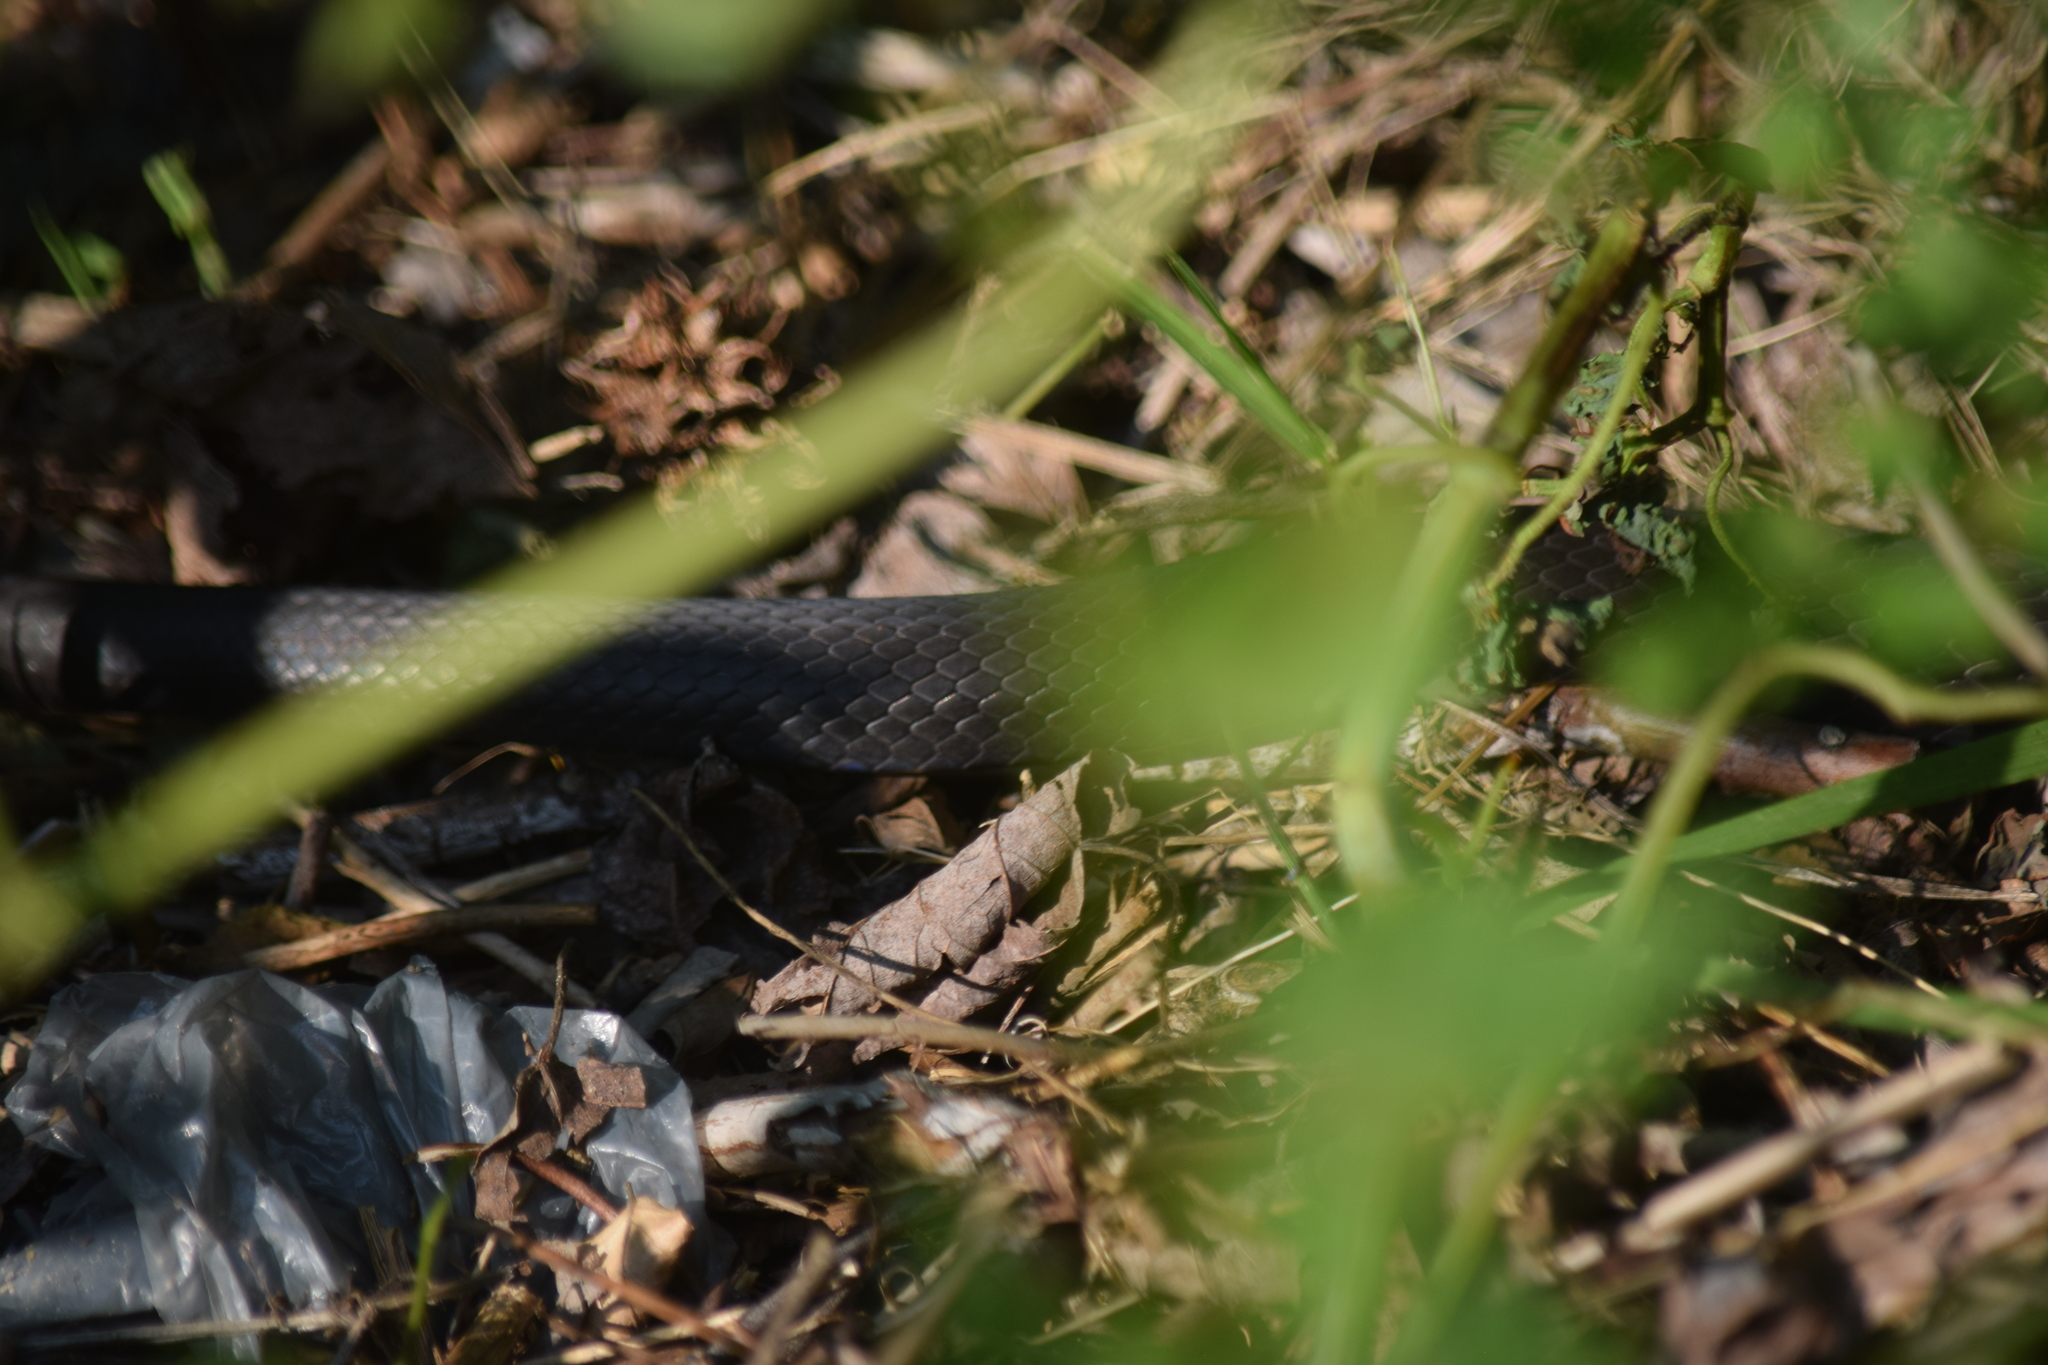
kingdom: Animalia
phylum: Chordata
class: Squamata
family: Colubridae
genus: Coluber
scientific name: Coluber constrictor
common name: Eastern racer
